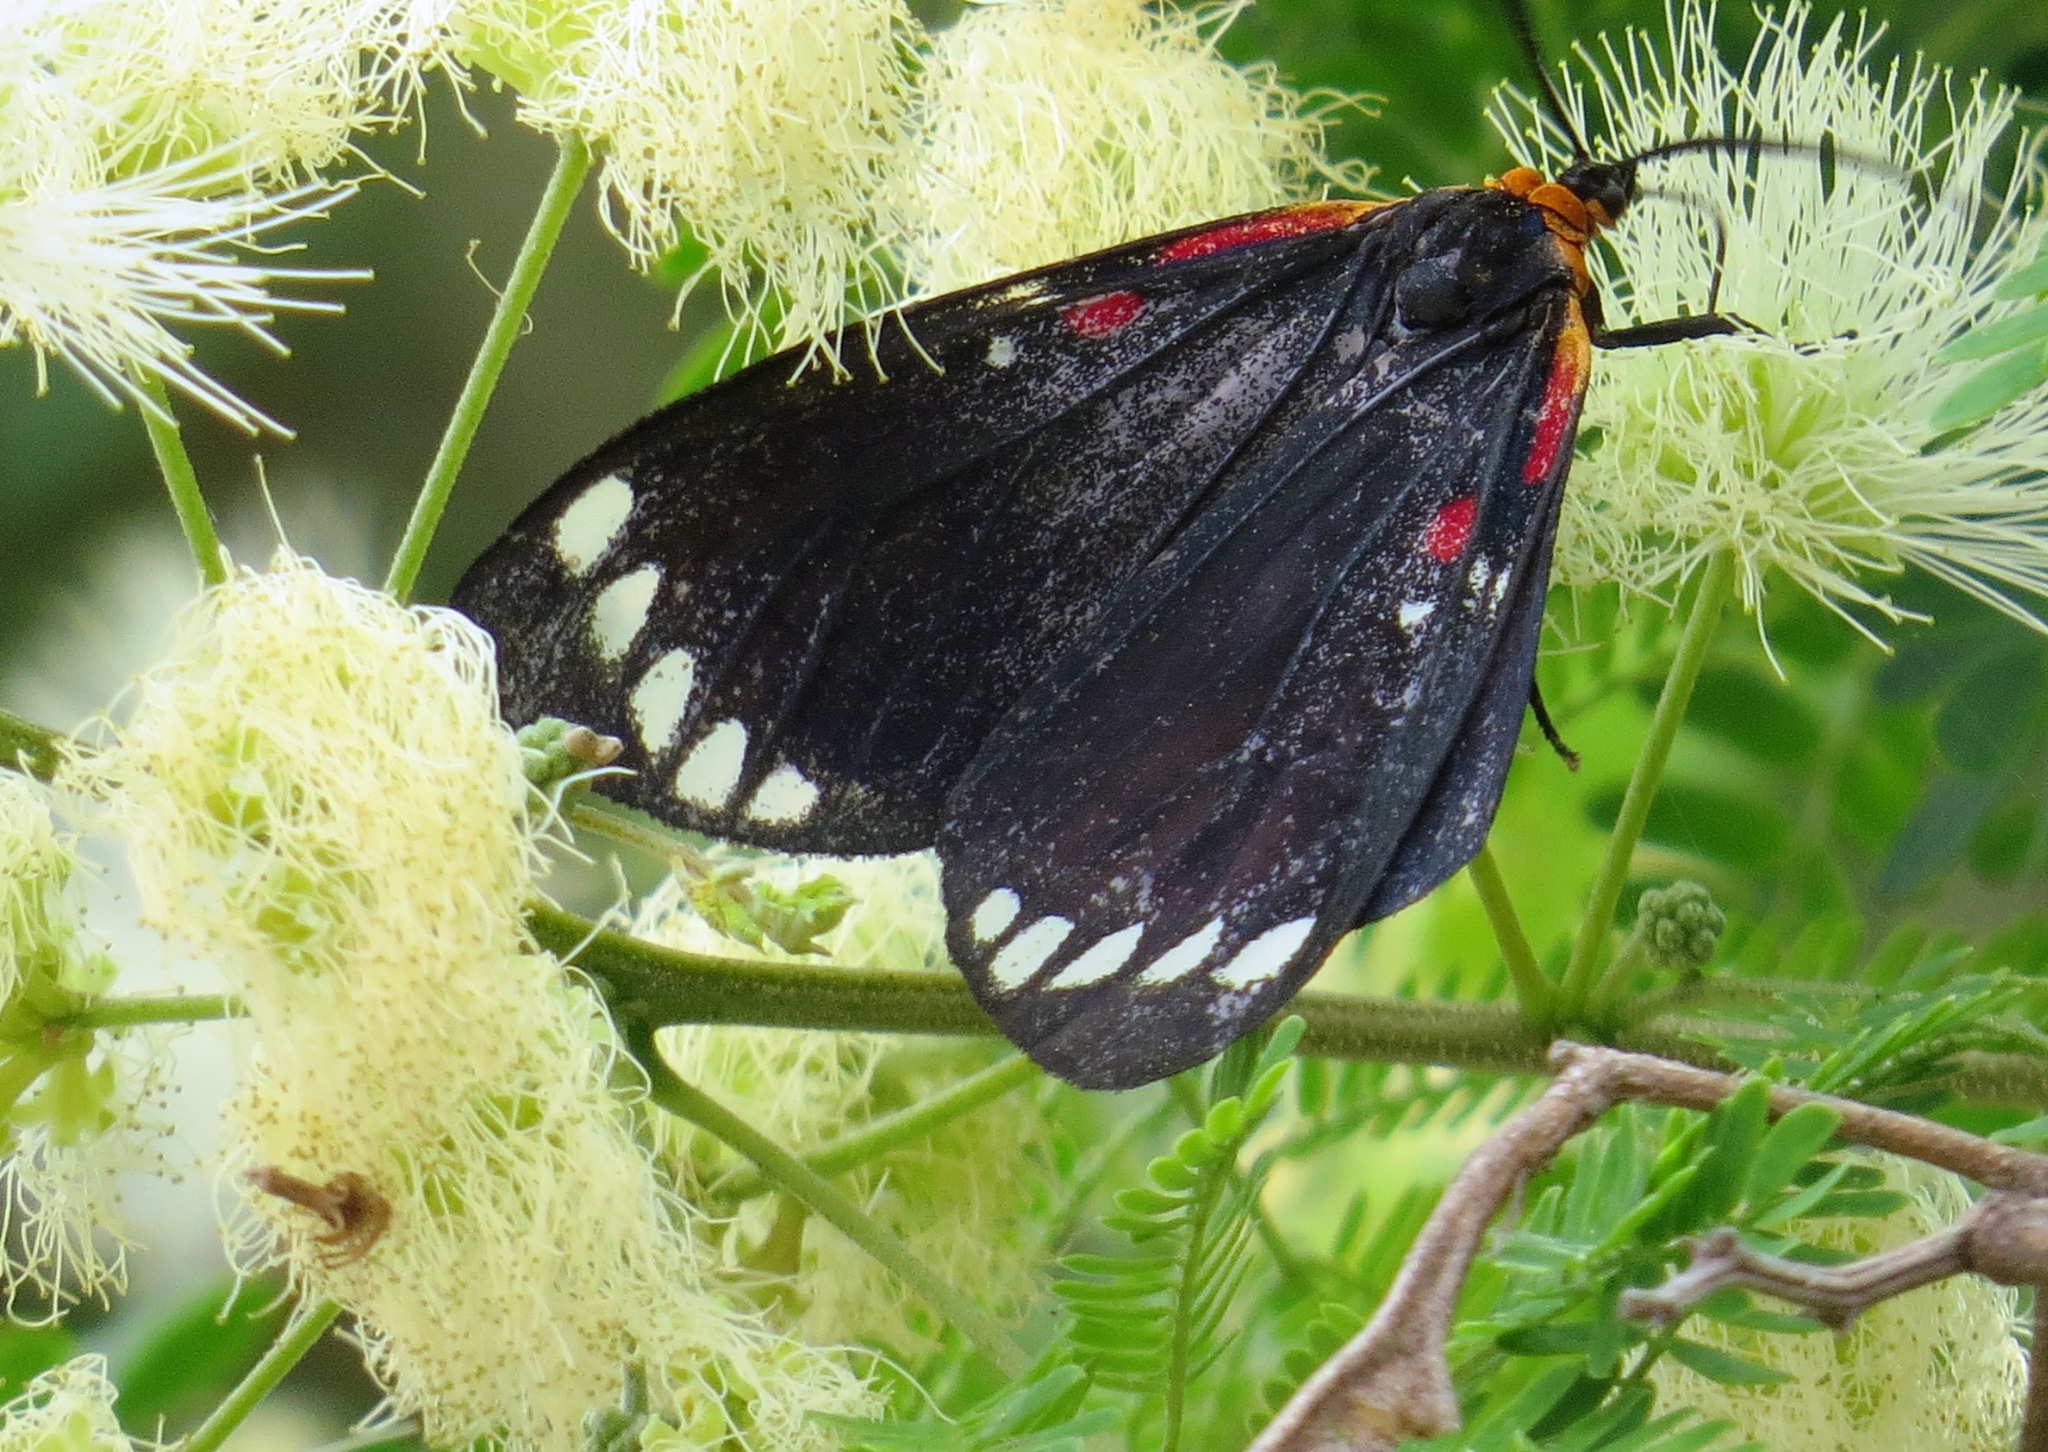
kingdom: Animalia
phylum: Arthropoda
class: Insecta
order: Lepidoptera
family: Erebidae
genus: Phaloesia
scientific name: Phaloesia saucia
